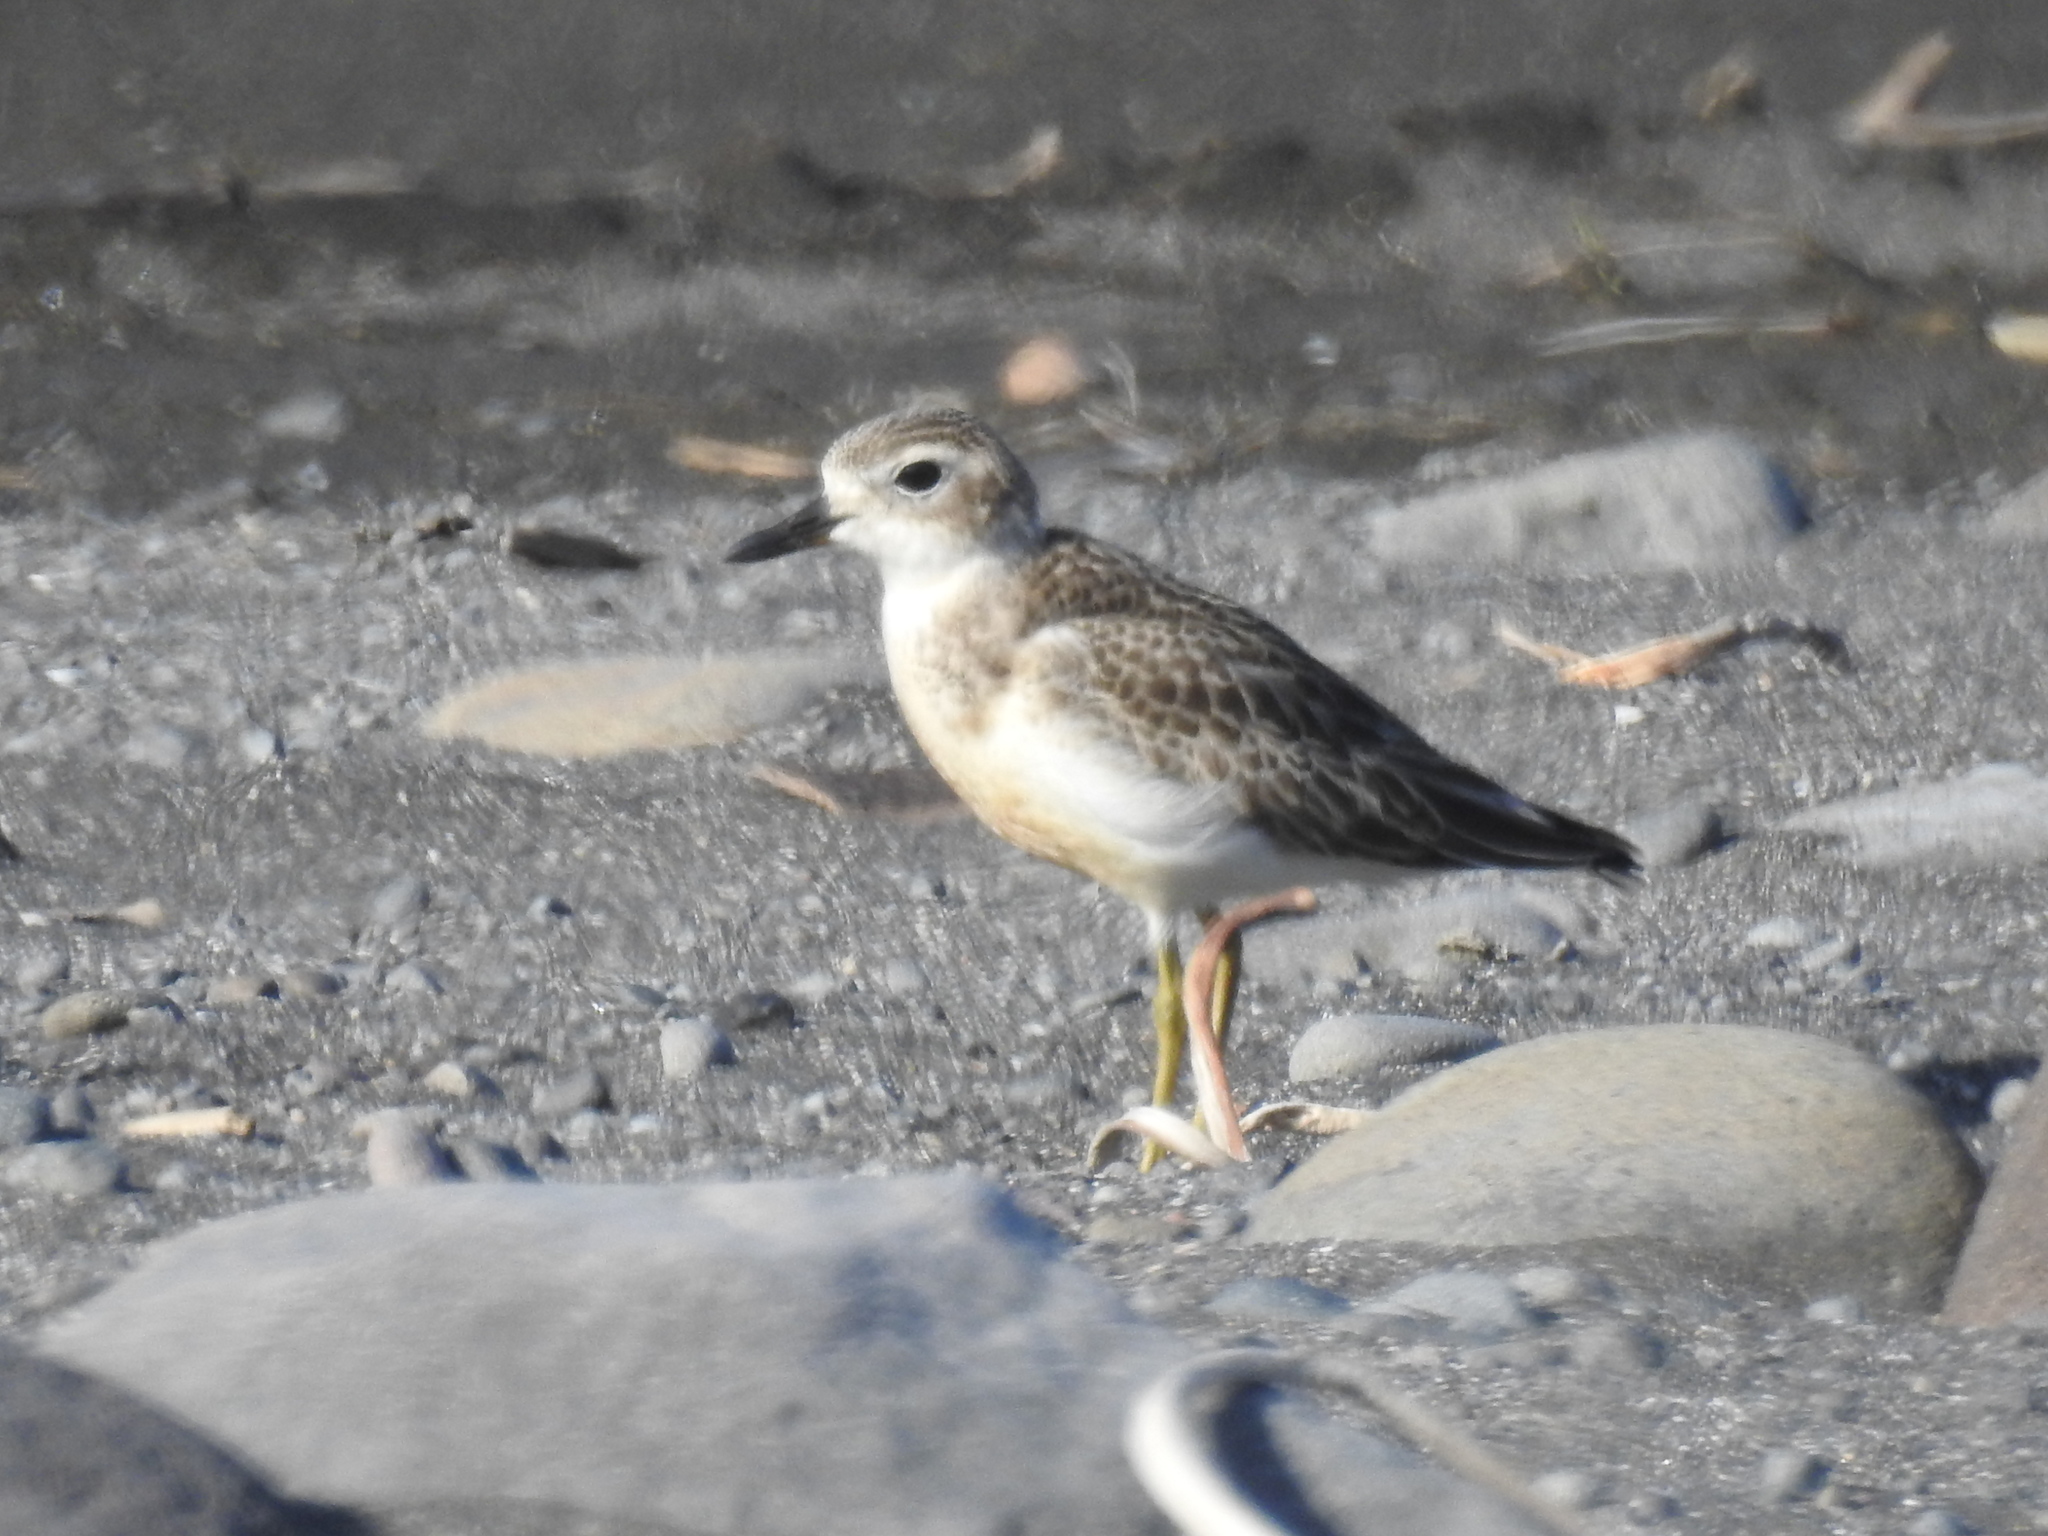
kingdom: Animalia
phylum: Chordata
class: Aves
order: Charadriiformes
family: Charadriidae
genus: Anarhynchus
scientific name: Anarhynchus
